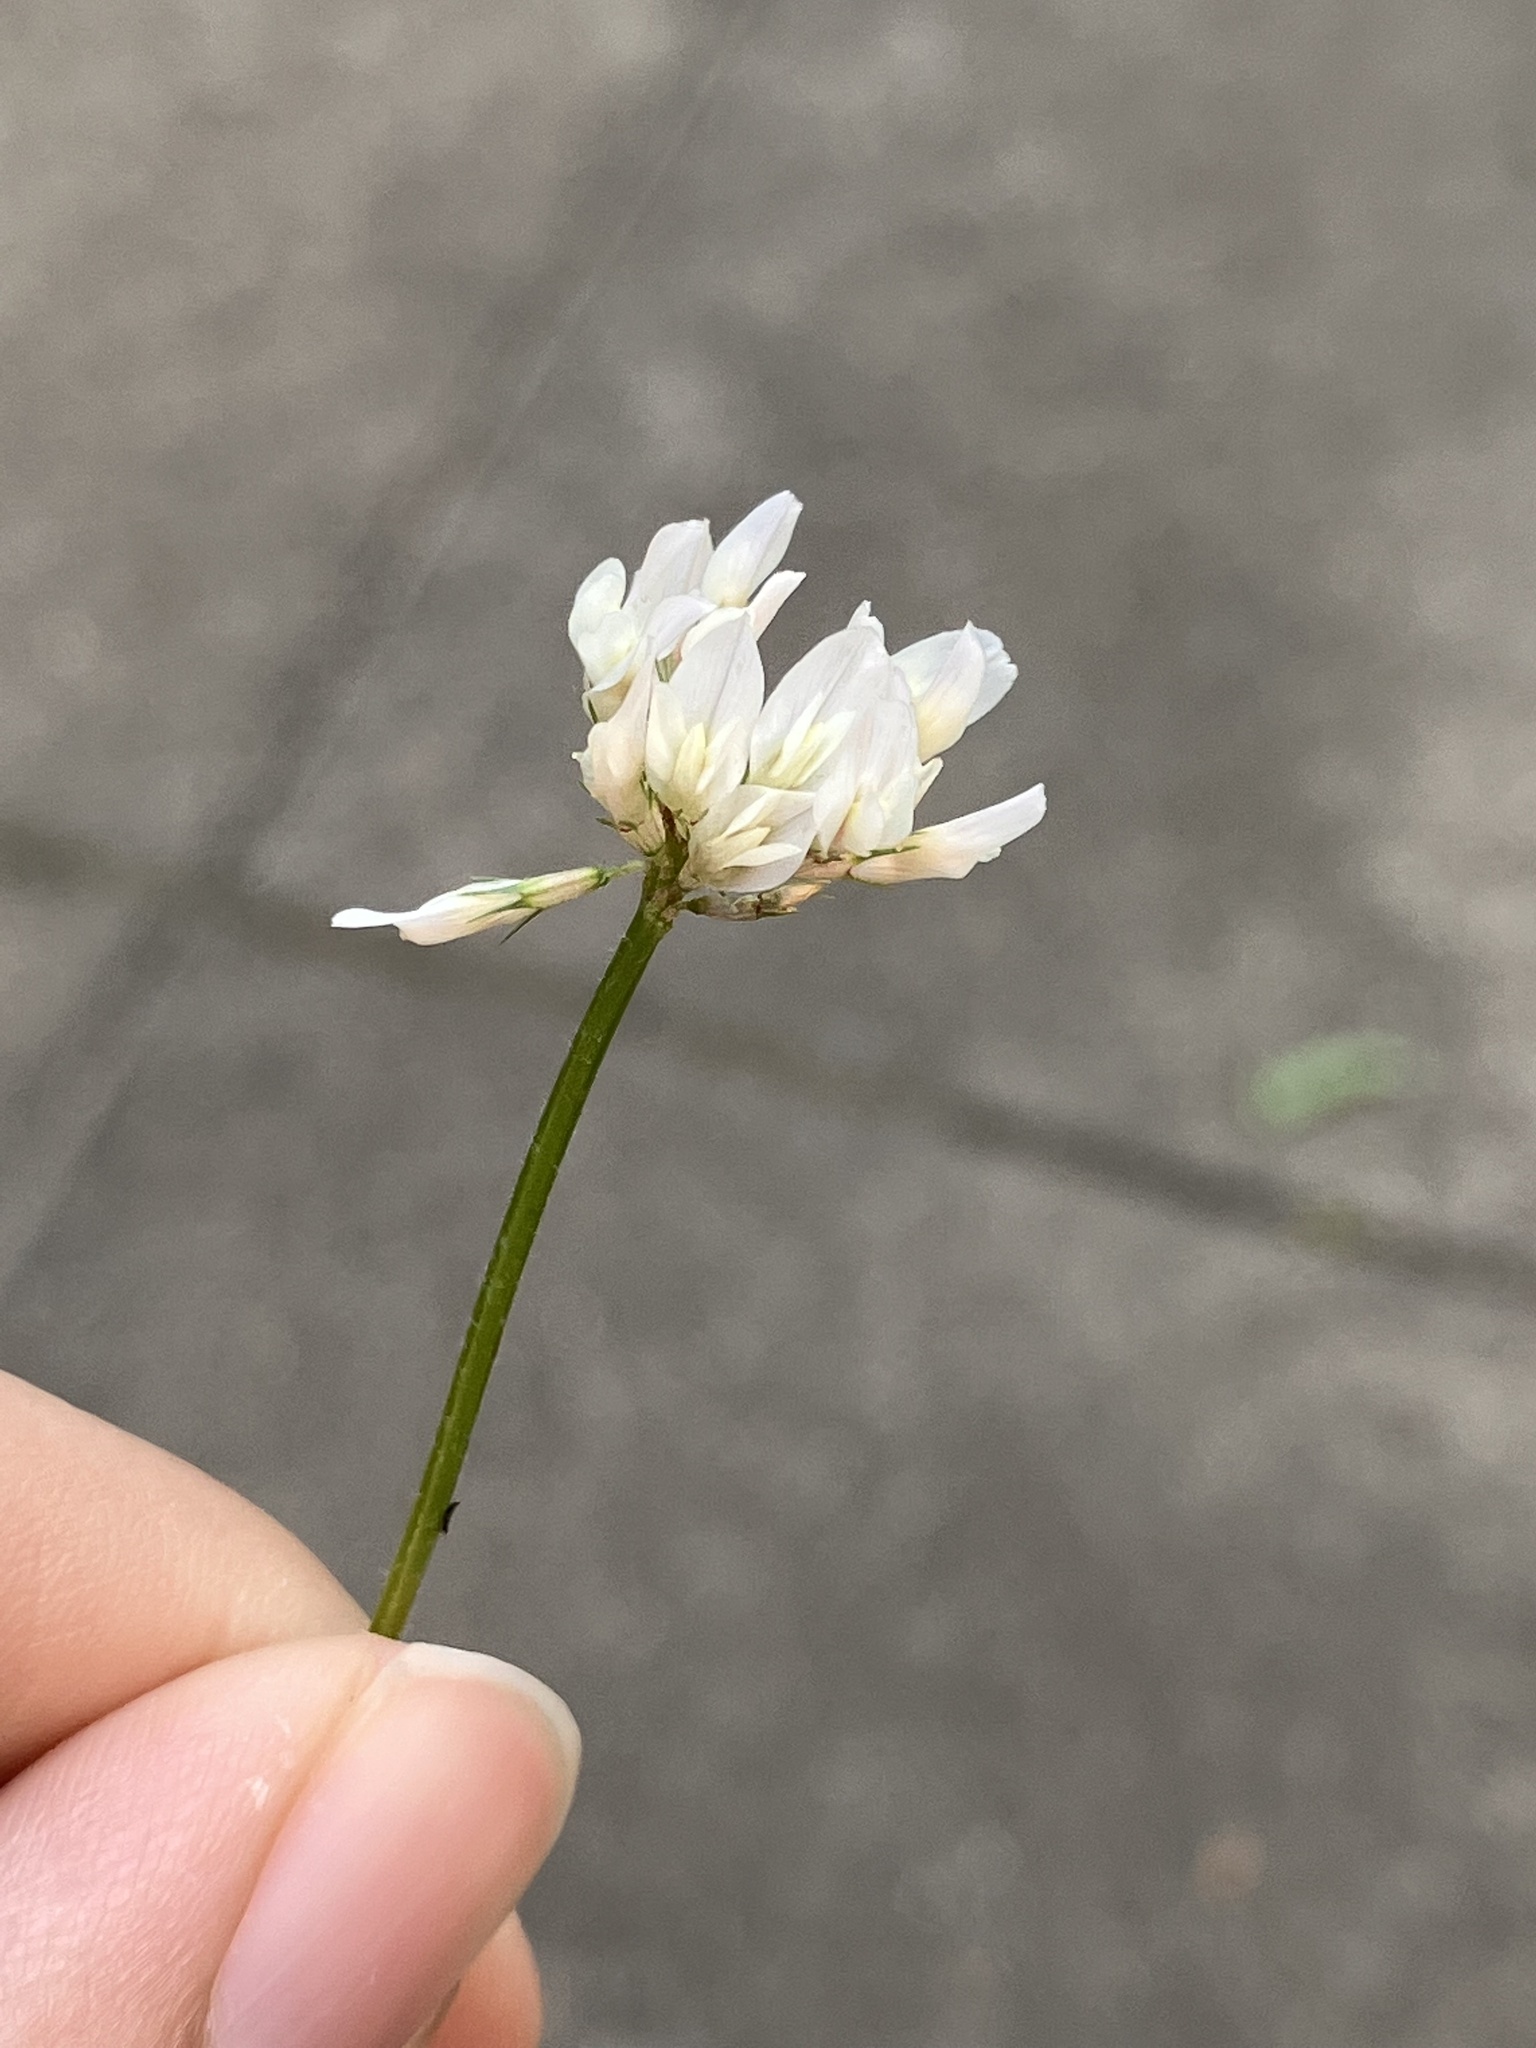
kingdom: Plantae
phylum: Tracheophyta
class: Magnoliopsida
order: Fabales
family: Fabaceae
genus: Trifolium
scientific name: Trifolium repens
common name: White clover
